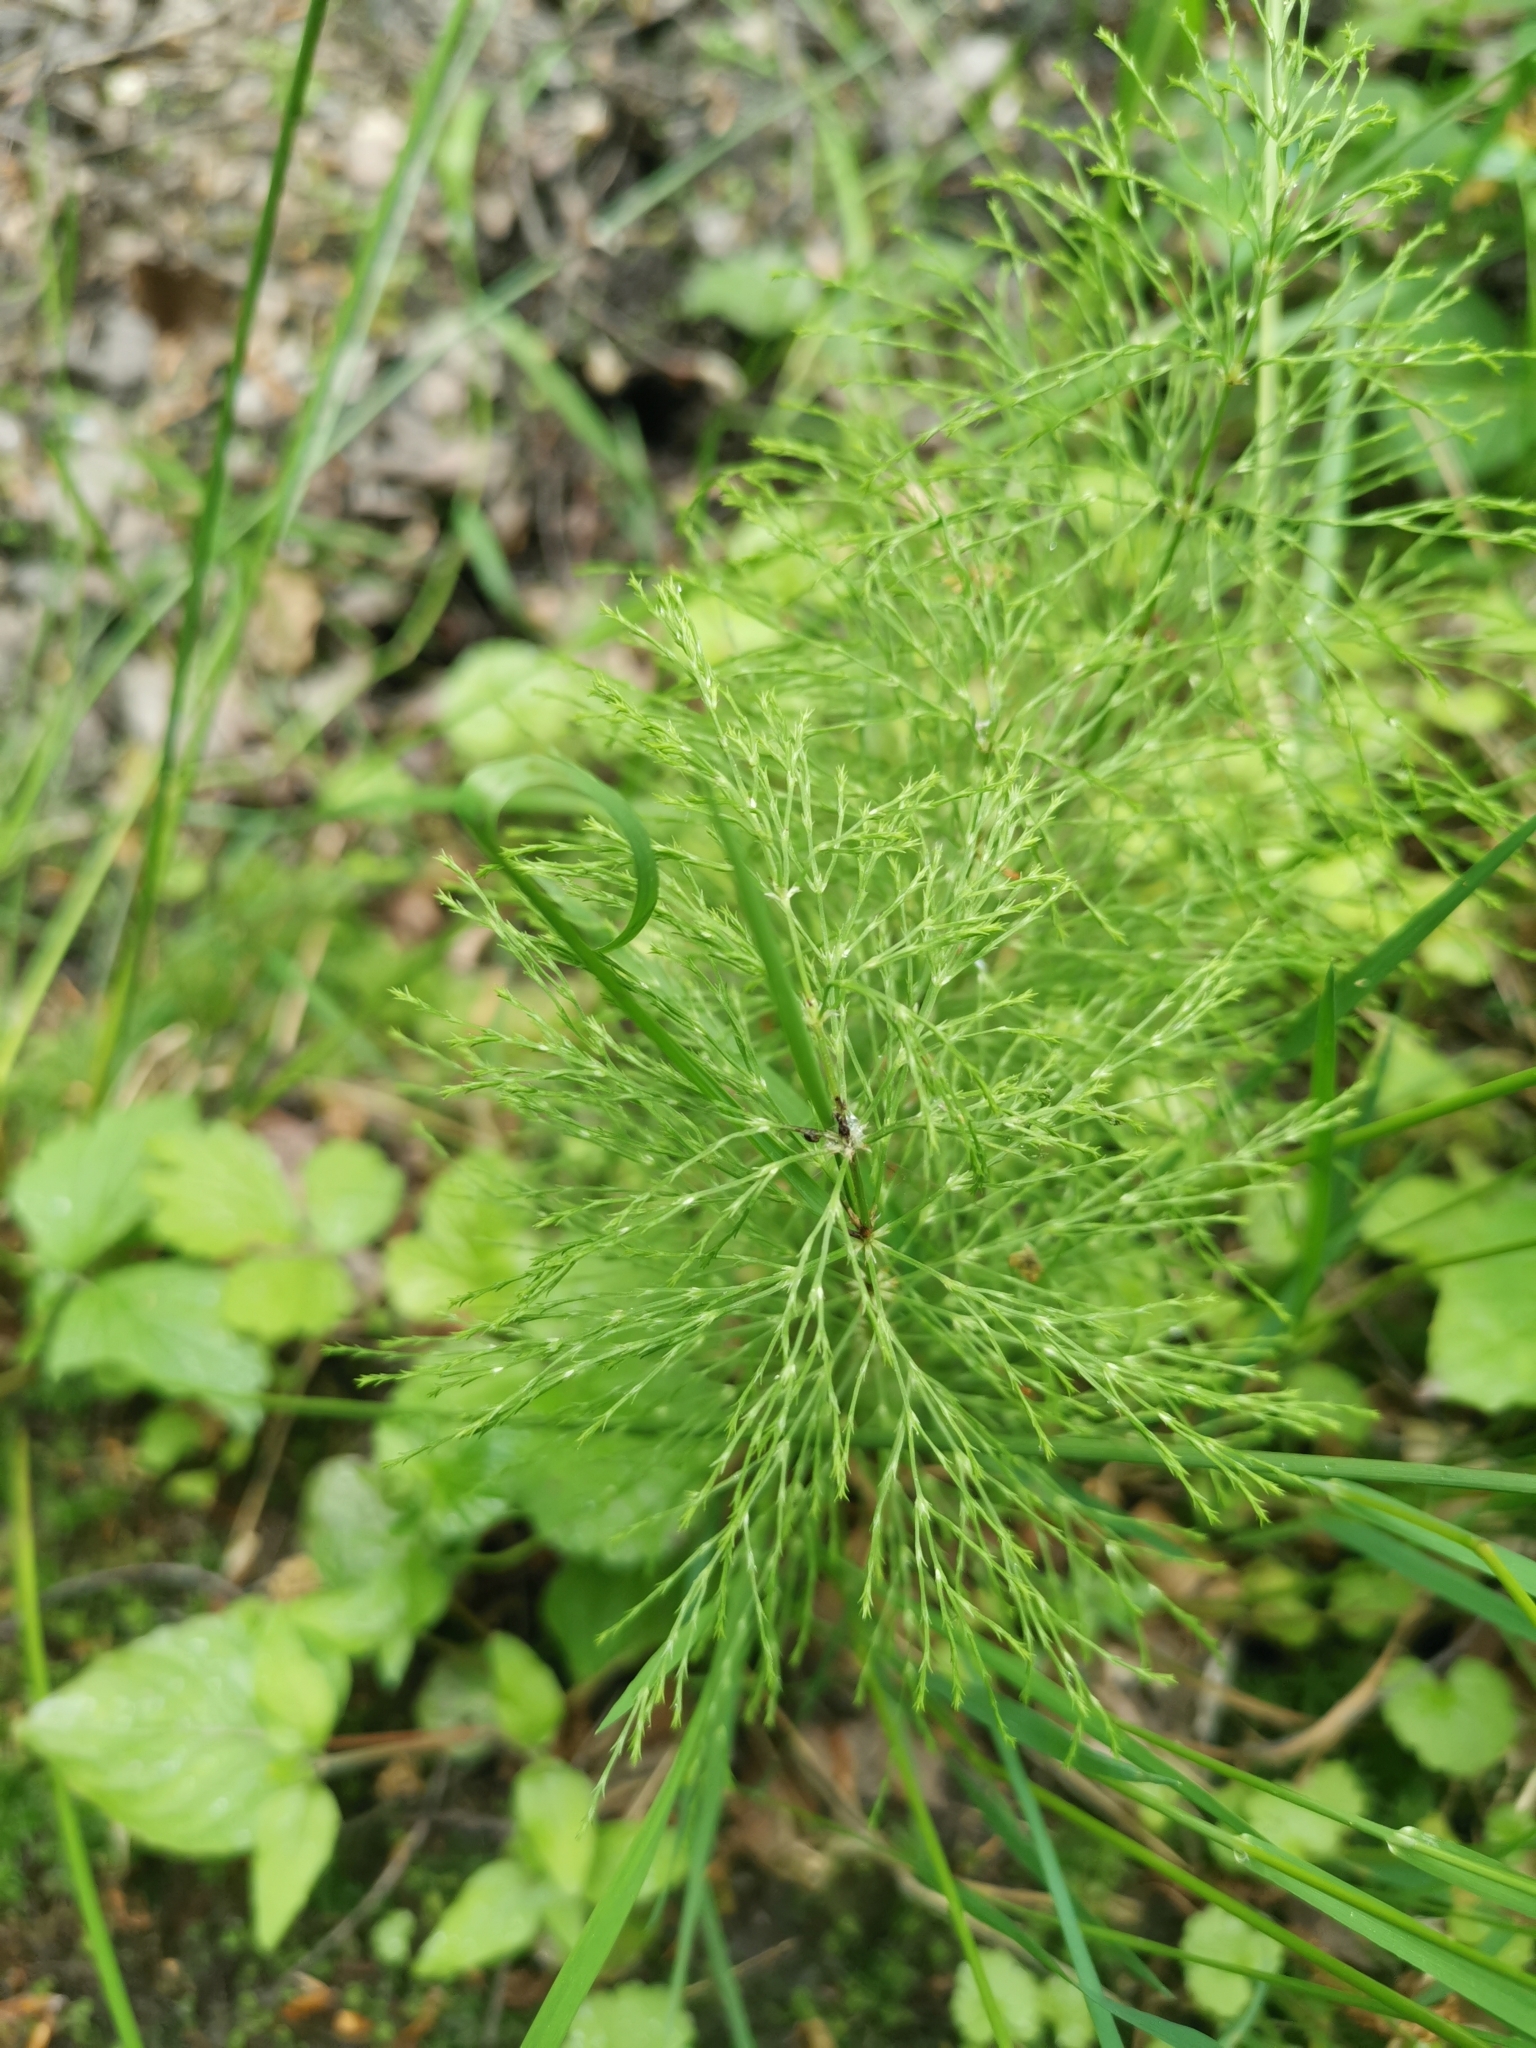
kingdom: Plantae
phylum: Tracheophyta
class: Polypodiopsida
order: Equisetales
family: Equisetaceae
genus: Equisetum
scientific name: Equisetum sylvaticum
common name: Wood horsetail
